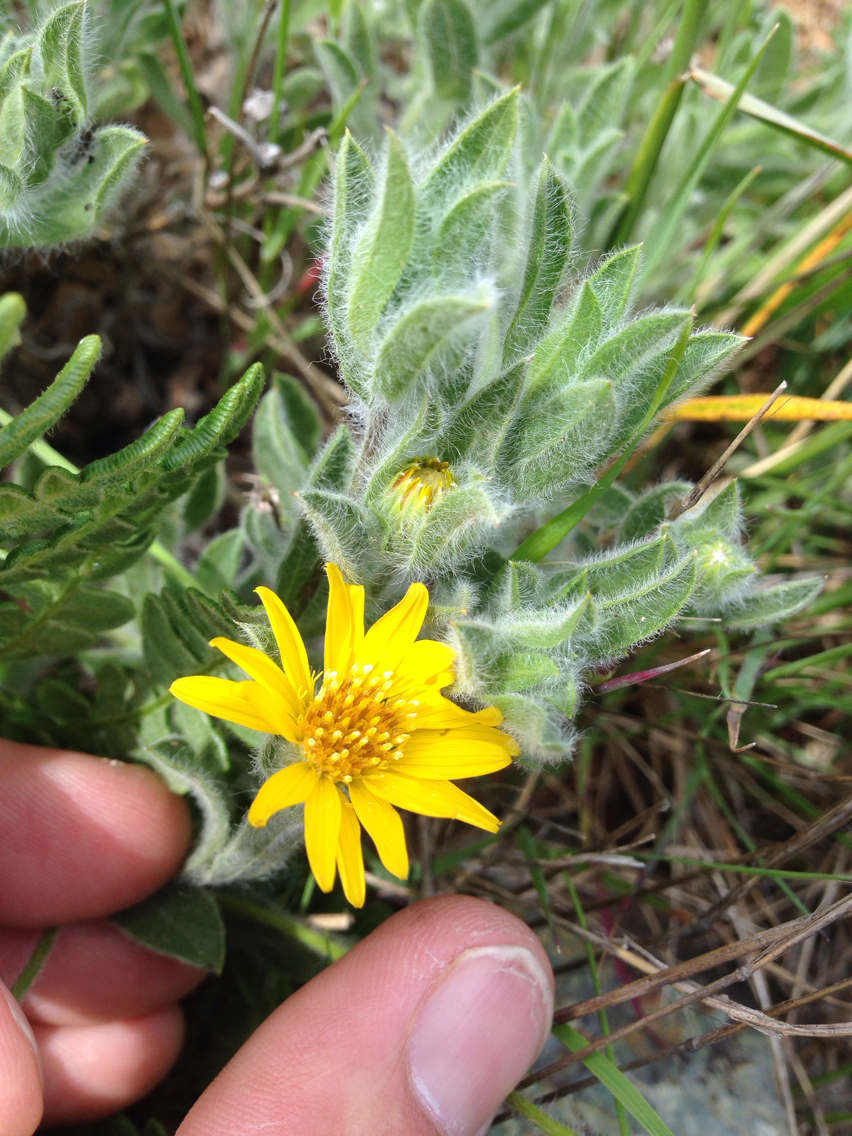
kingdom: Plantae
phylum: Tracheophyta
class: Magnoliopsida
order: Asterales
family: Asteraceae
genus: Heterotheca
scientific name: Heterotheca sessiliflora
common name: Sessile-flower golden-aster
